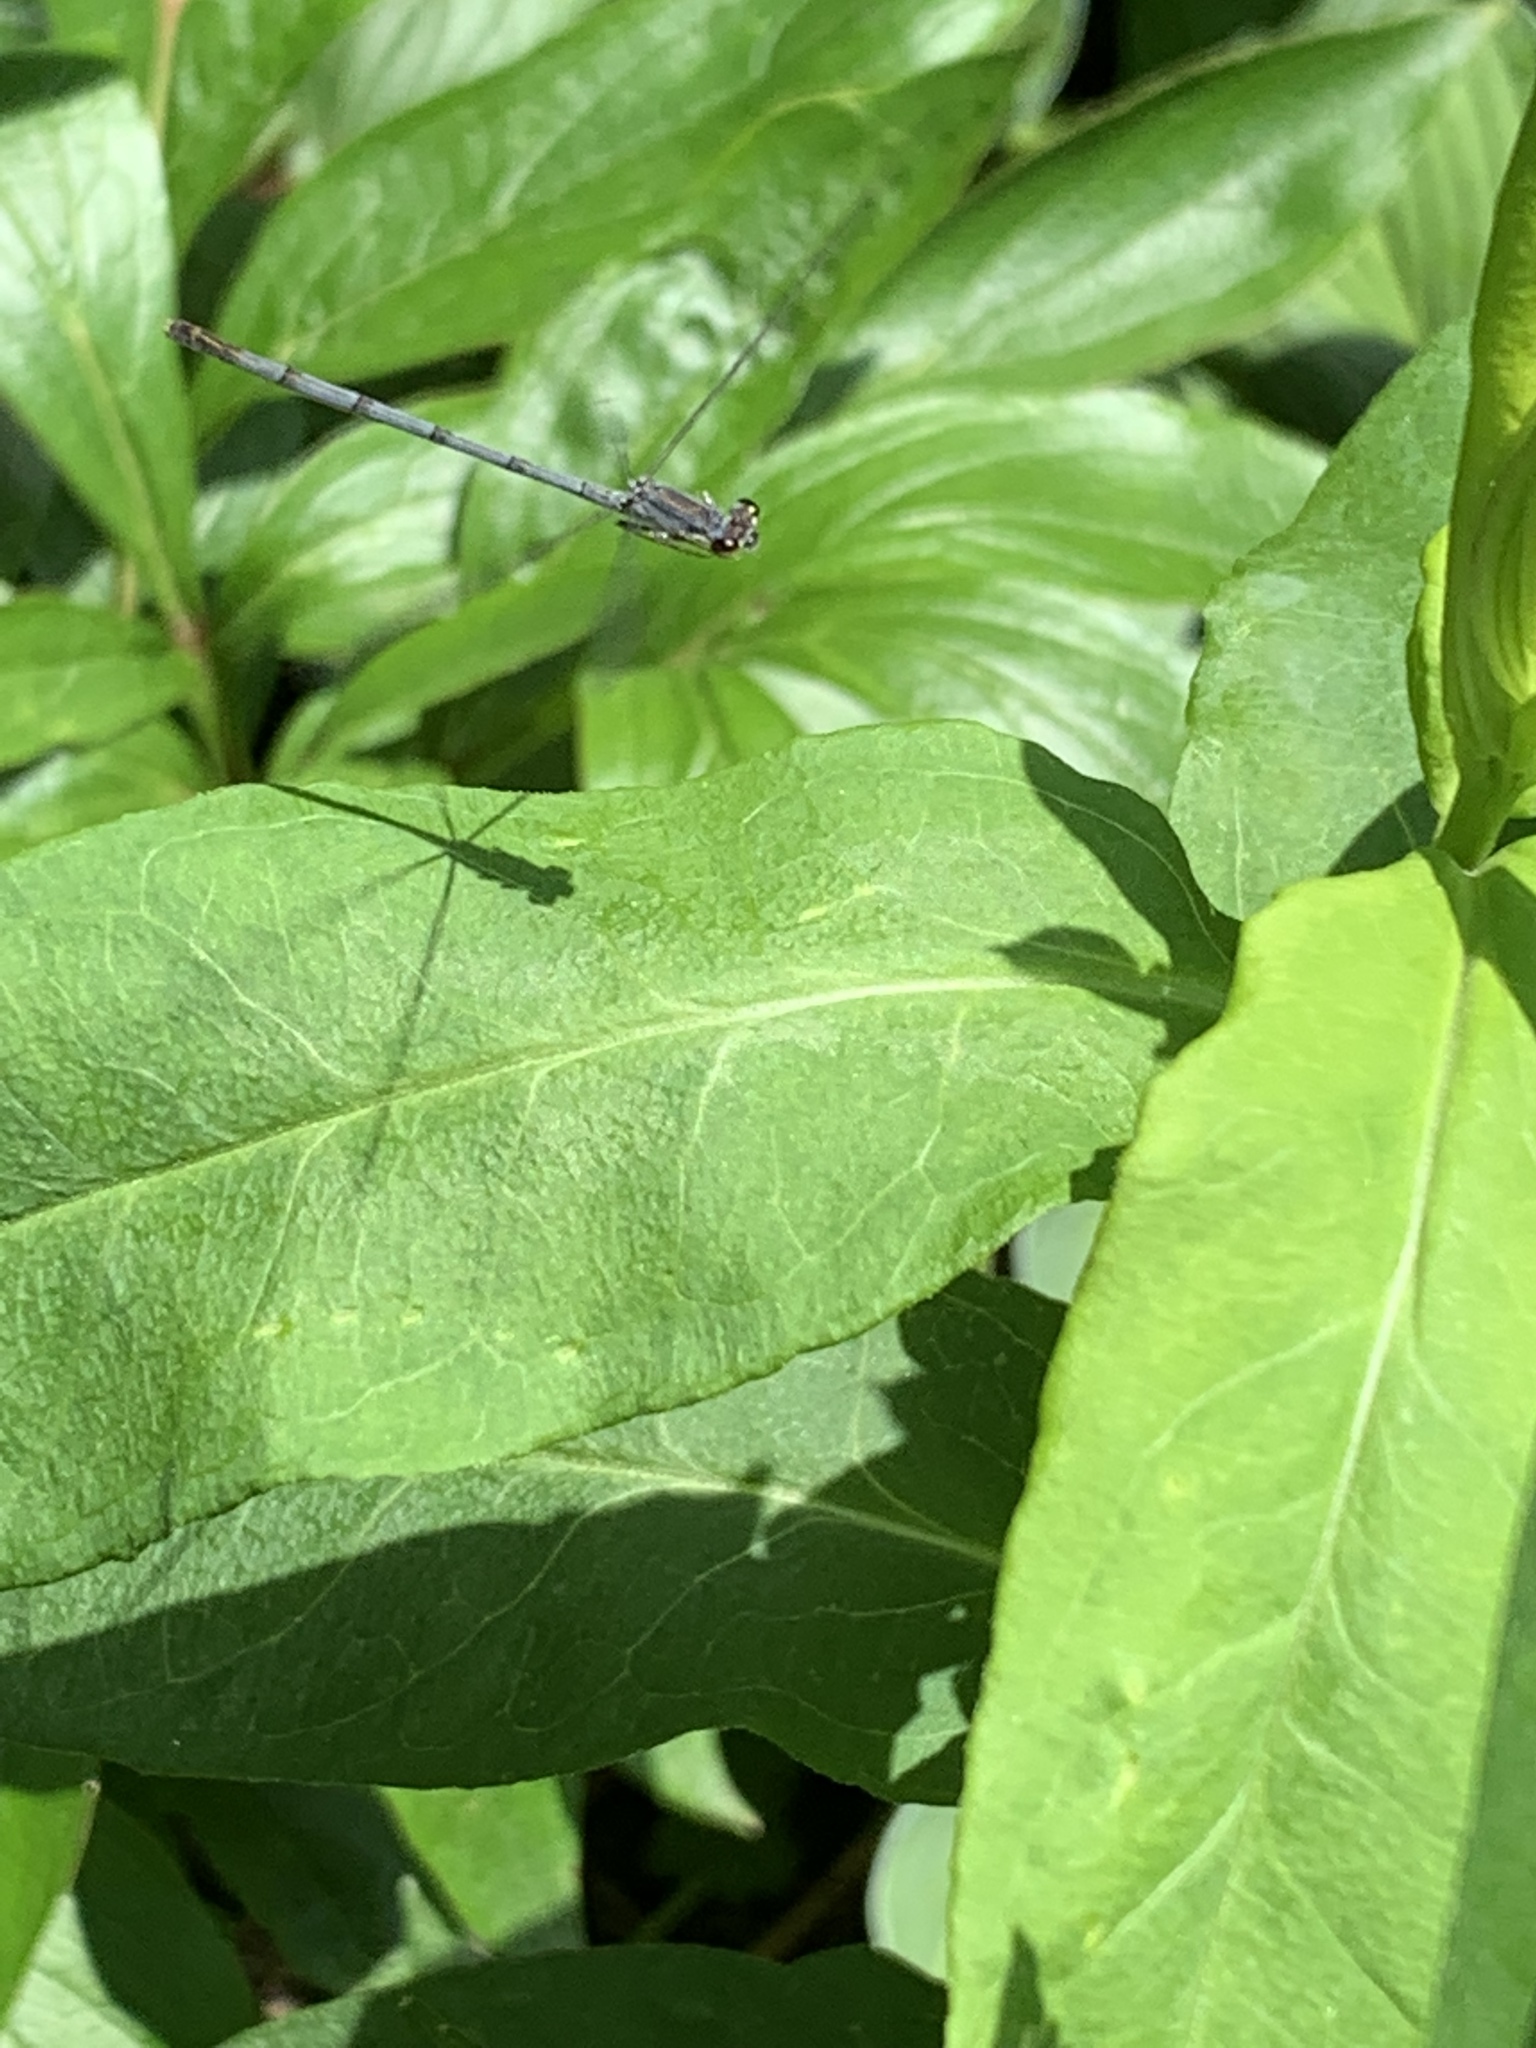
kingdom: Animalia
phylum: Arthropoda
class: Insecta
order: Odonata
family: Coenagrionidae
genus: Ischnura
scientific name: Ischnura posita
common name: Fragile forktail
